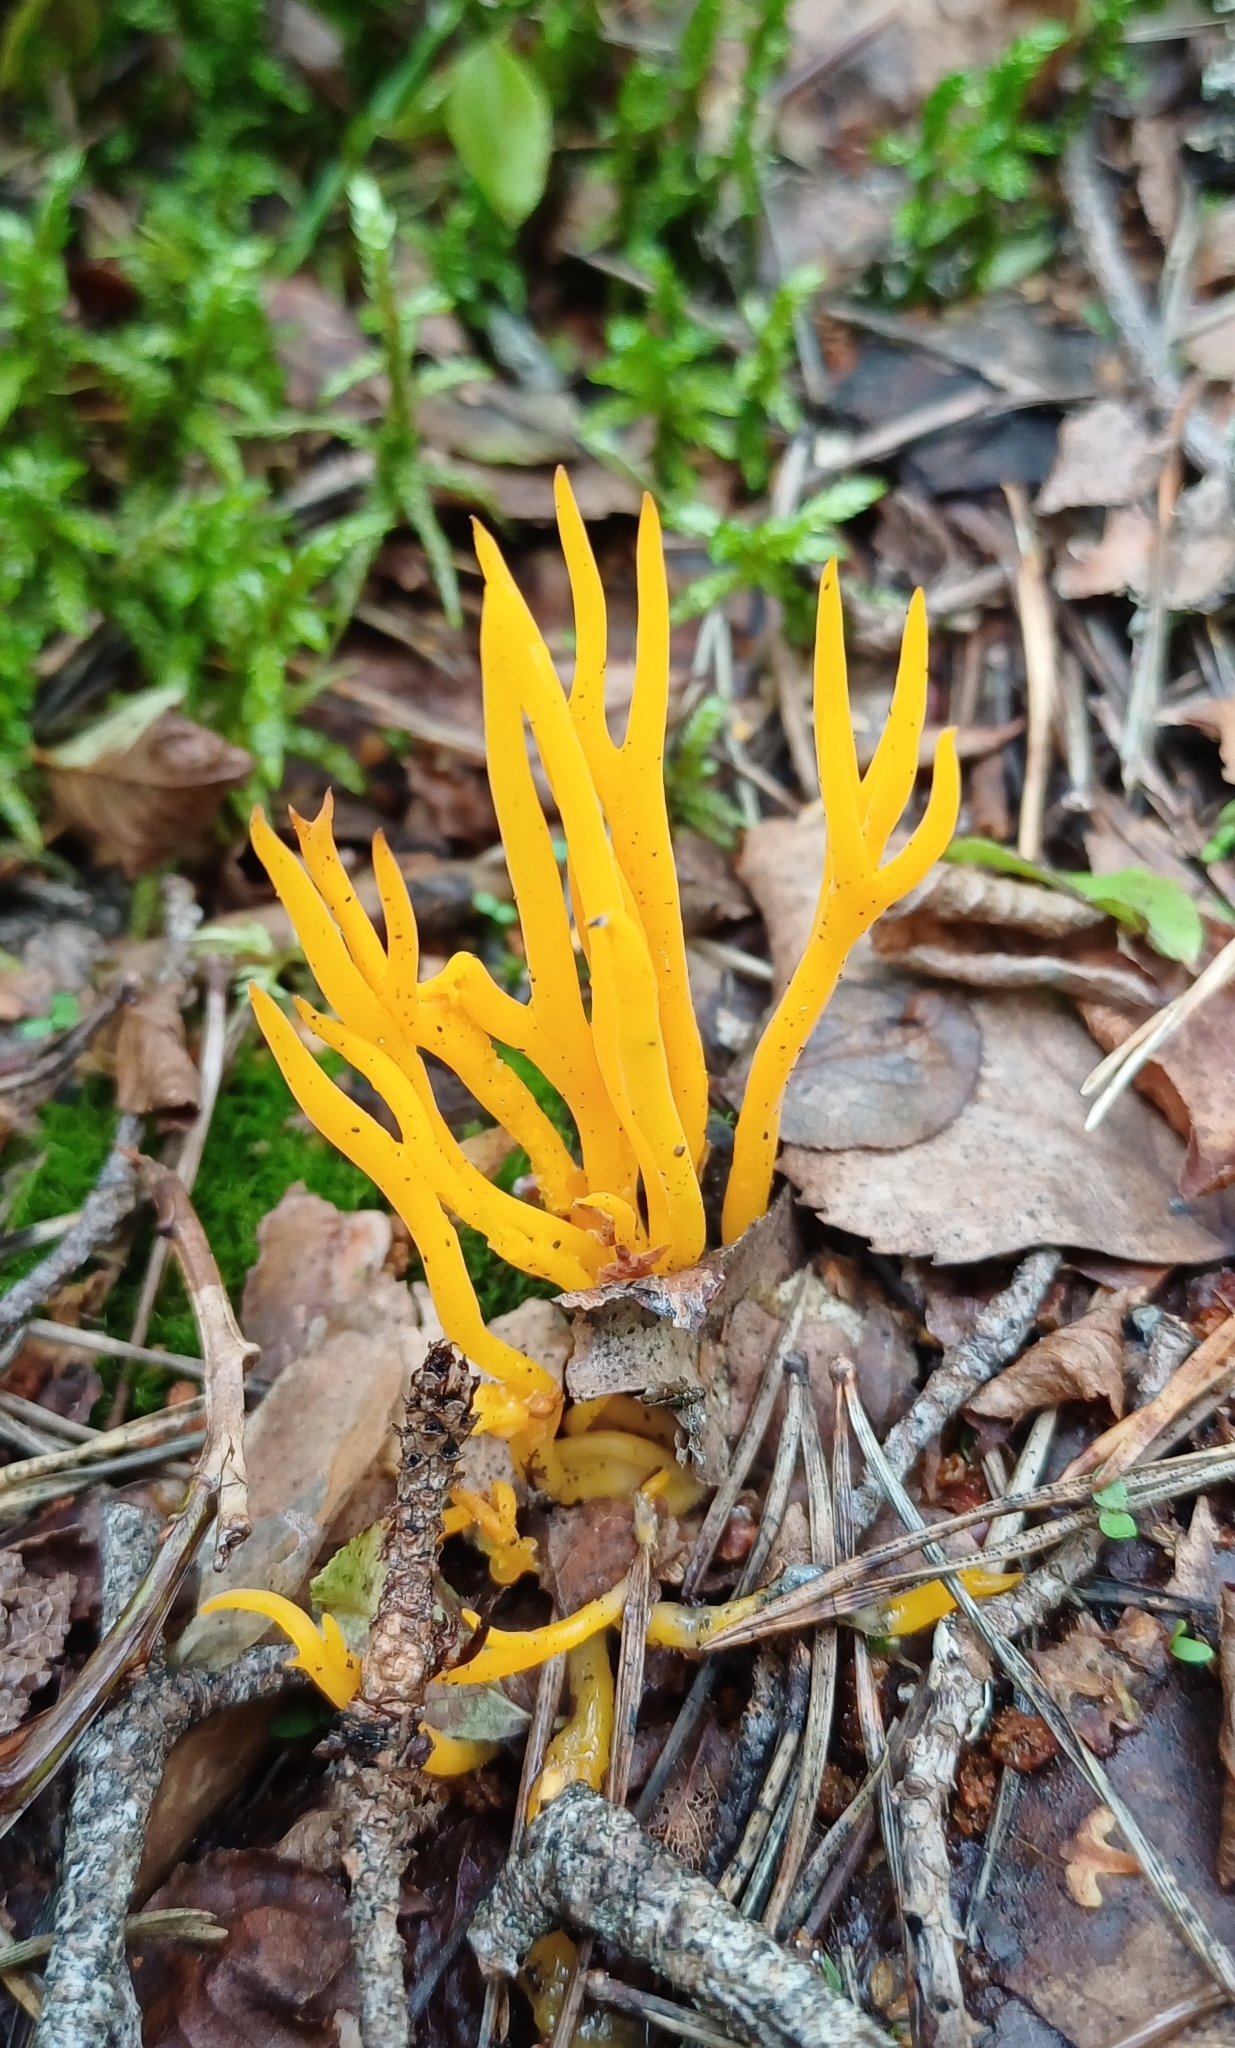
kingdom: Fungi
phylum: Basidiomycota
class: Dacrymycetes
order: Dacrymycetales
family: Dacrymycetaceae
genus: Calocera
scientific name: Calocera viscosa
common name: Yellow stagshorn
